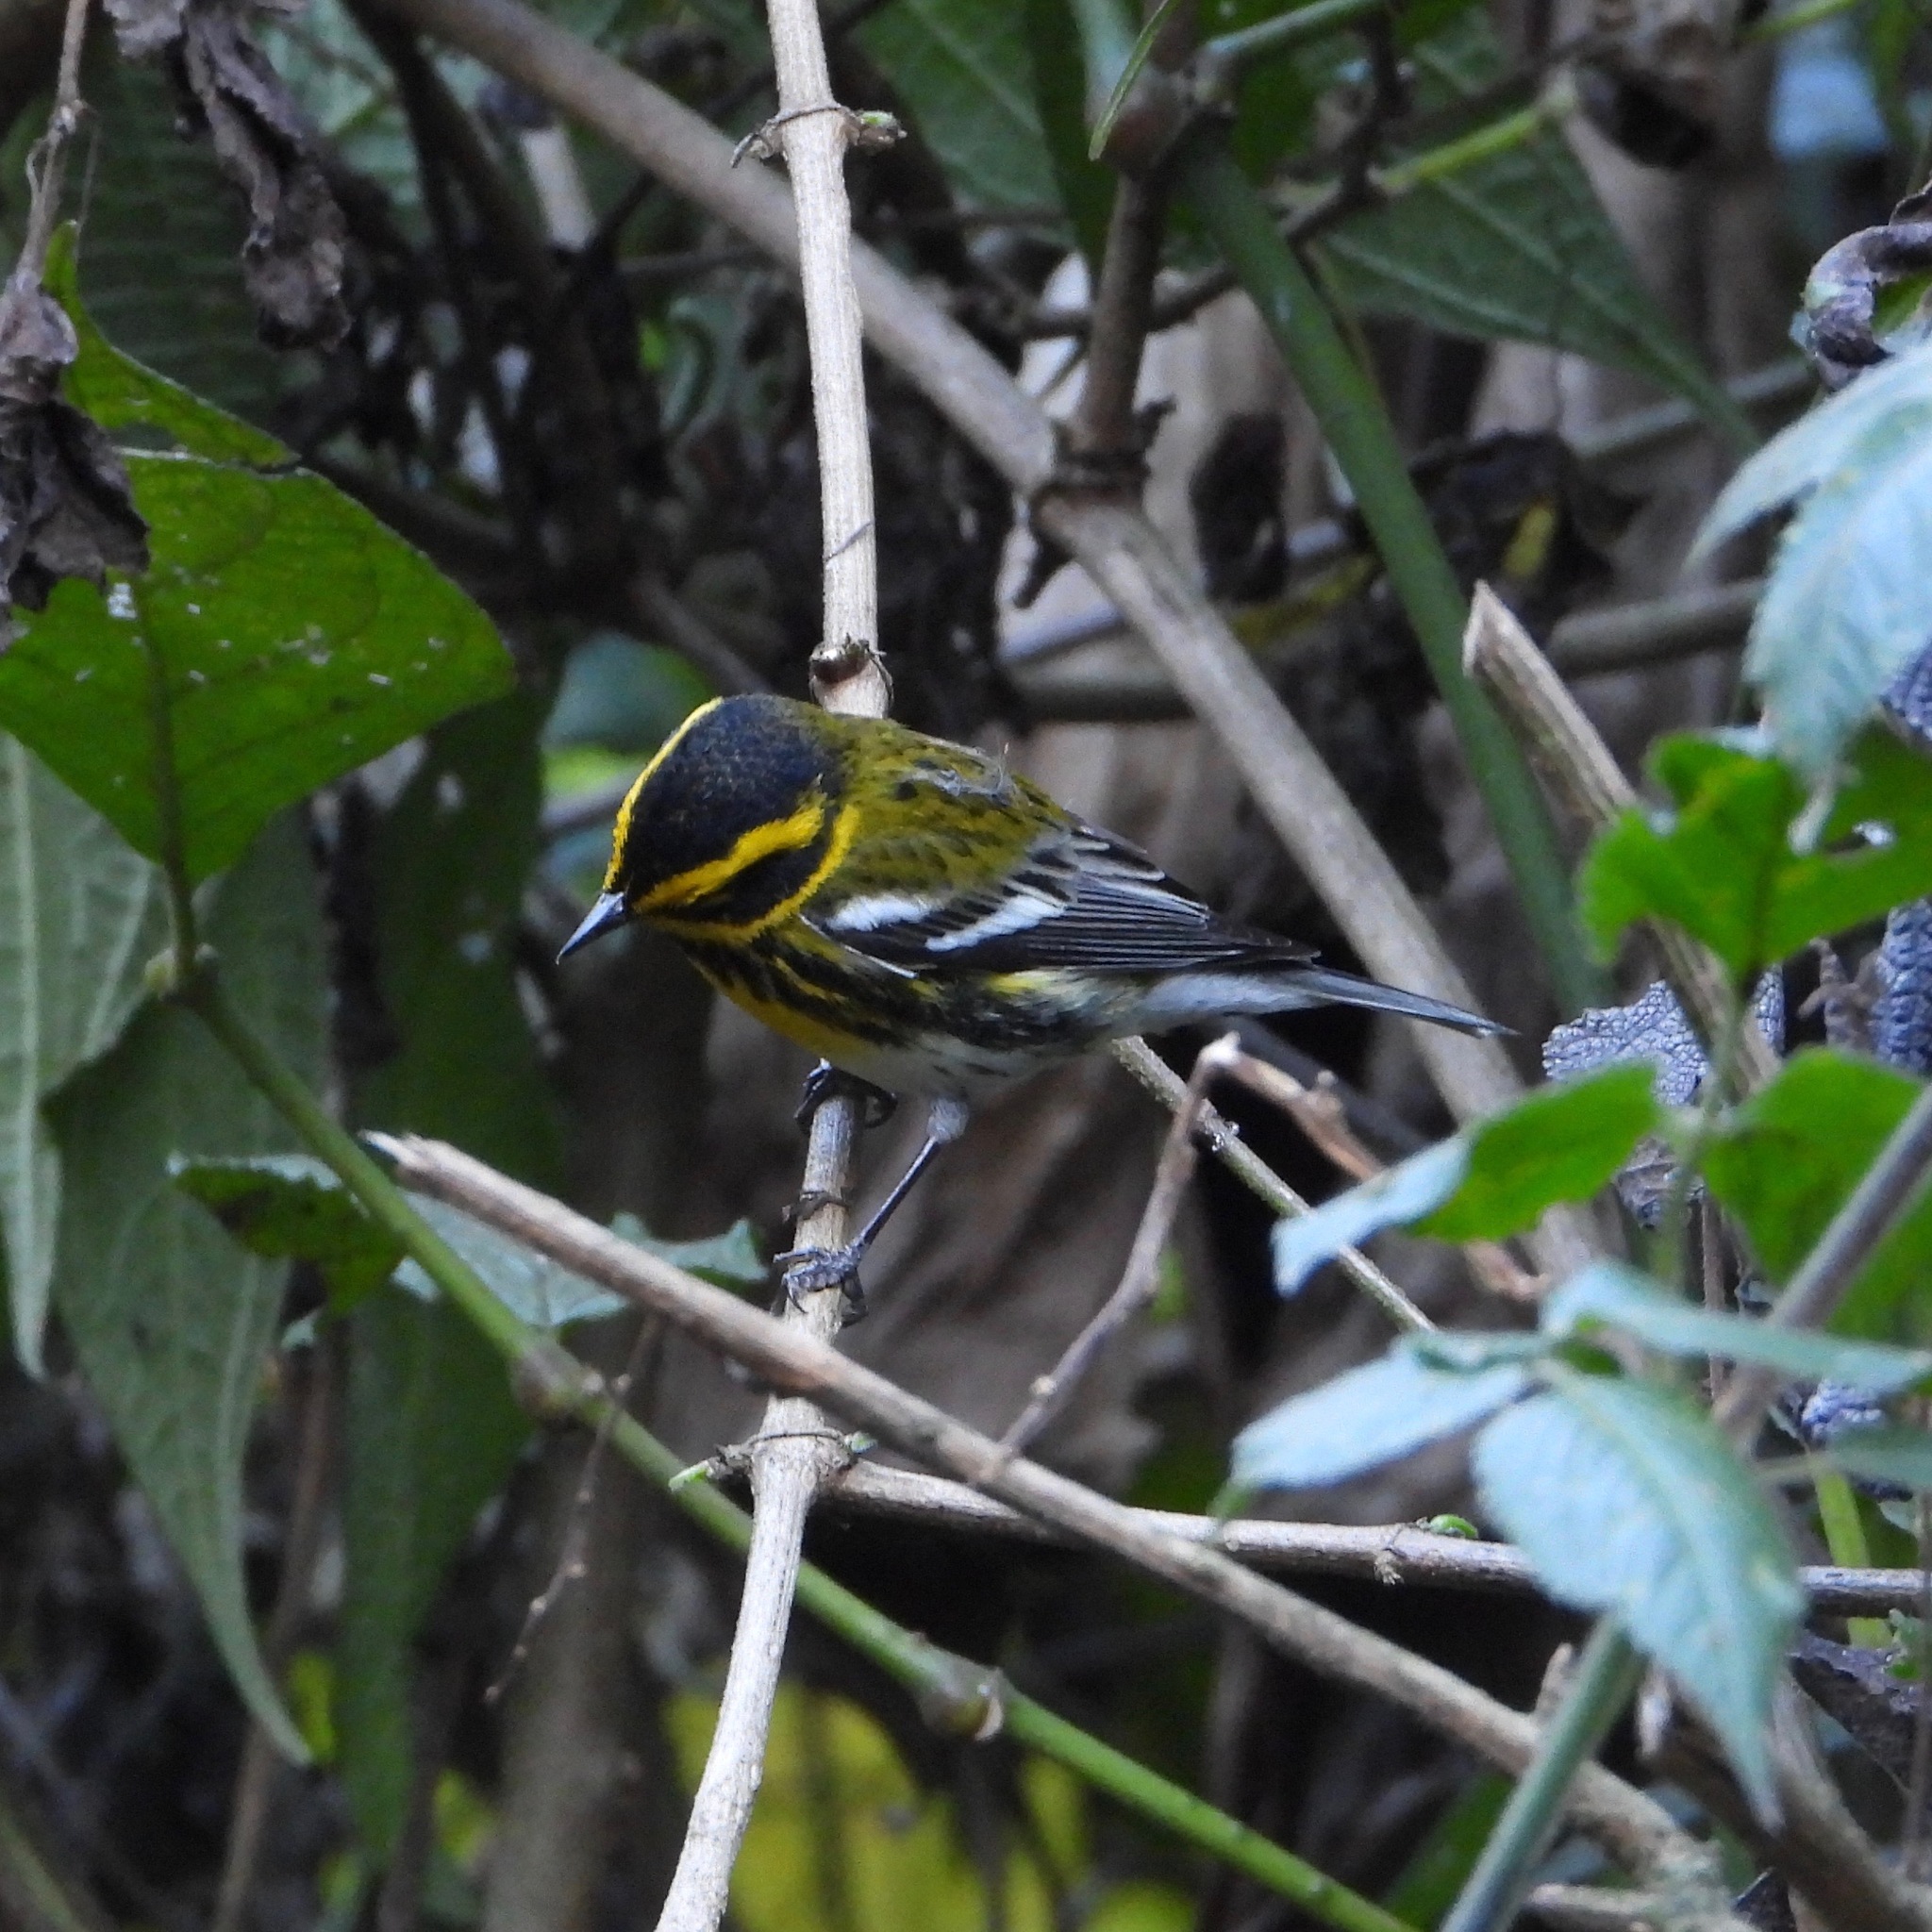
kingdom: Animalia
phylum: Chordata
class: Aves
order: Passeriformes
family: Parulidae
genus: Setophaga
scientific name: Setophaga townsendi
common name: Townsend's warbler
